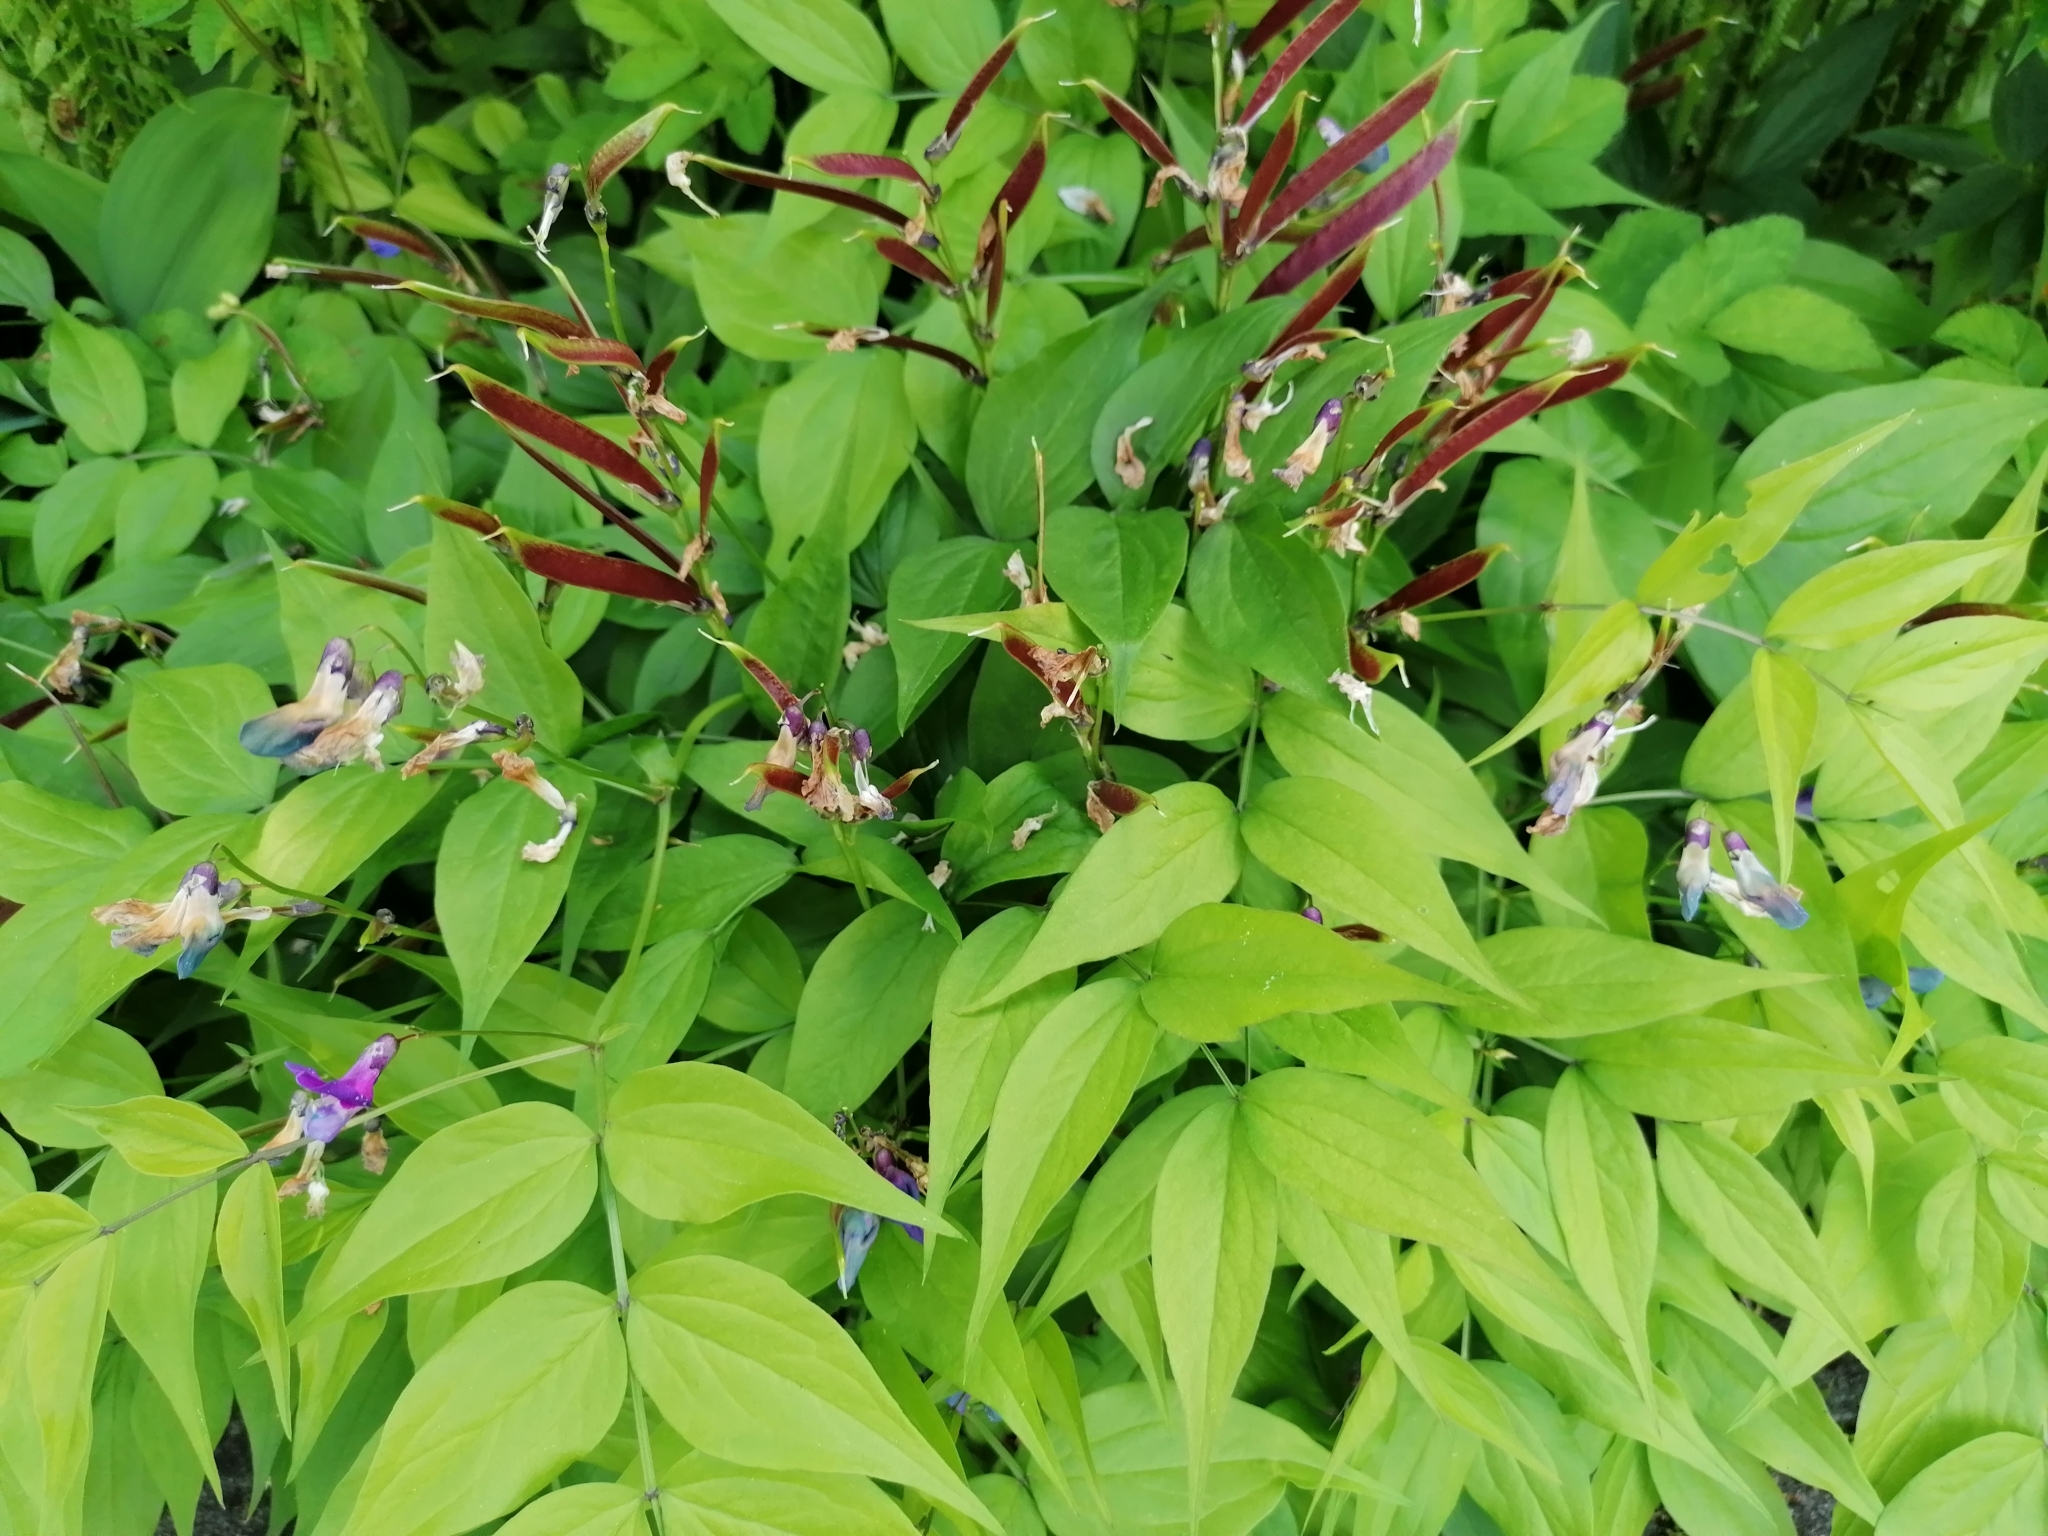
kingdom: Plantae
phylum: Tracheophyta
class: Magnoliopsida
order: Fabales
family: Fabaceae
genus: Lathyrus
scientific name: Lathyrus vernus
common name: Spring pea
